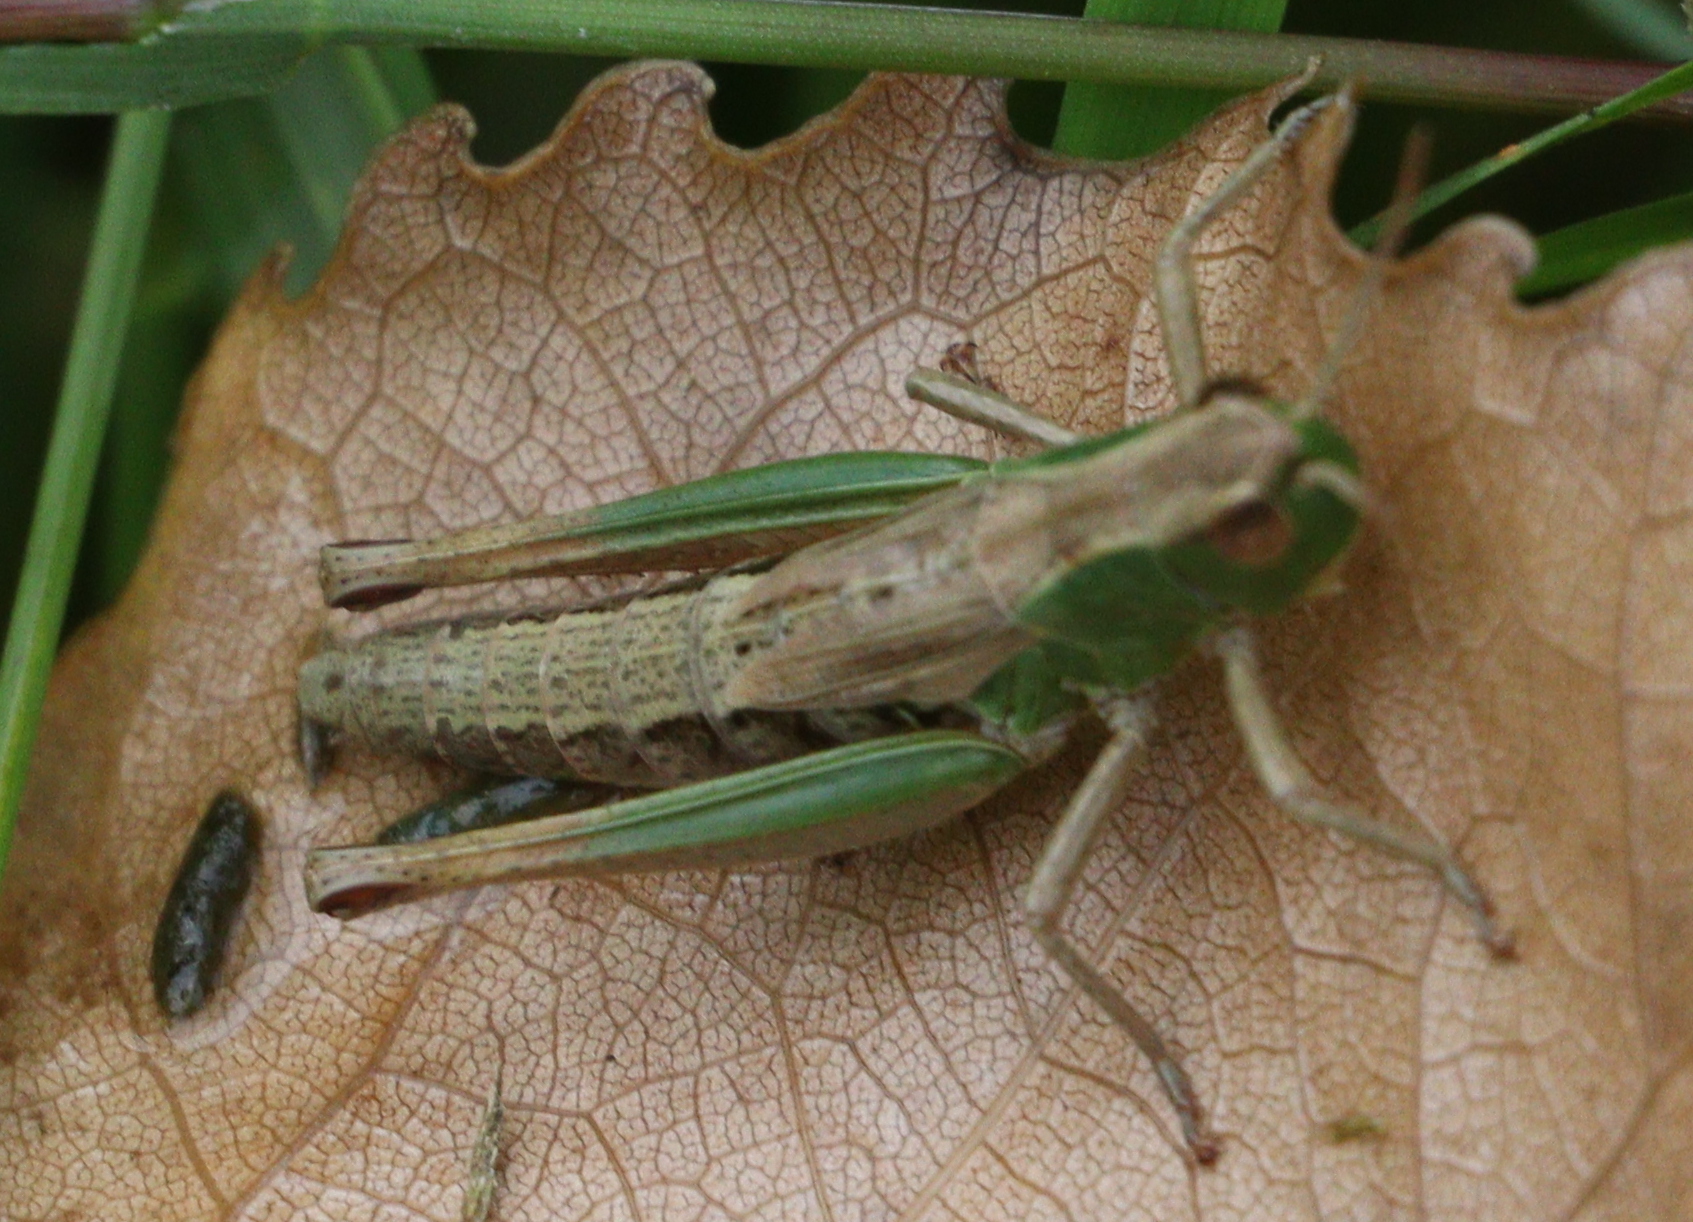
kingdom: Animalia
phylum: Arthropoda
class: Insecta
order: Orthoptera
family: Acrididae
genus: Pseudochorthippus
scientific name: Pseudochorthippus parallelus
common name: Meadow grasshopper
